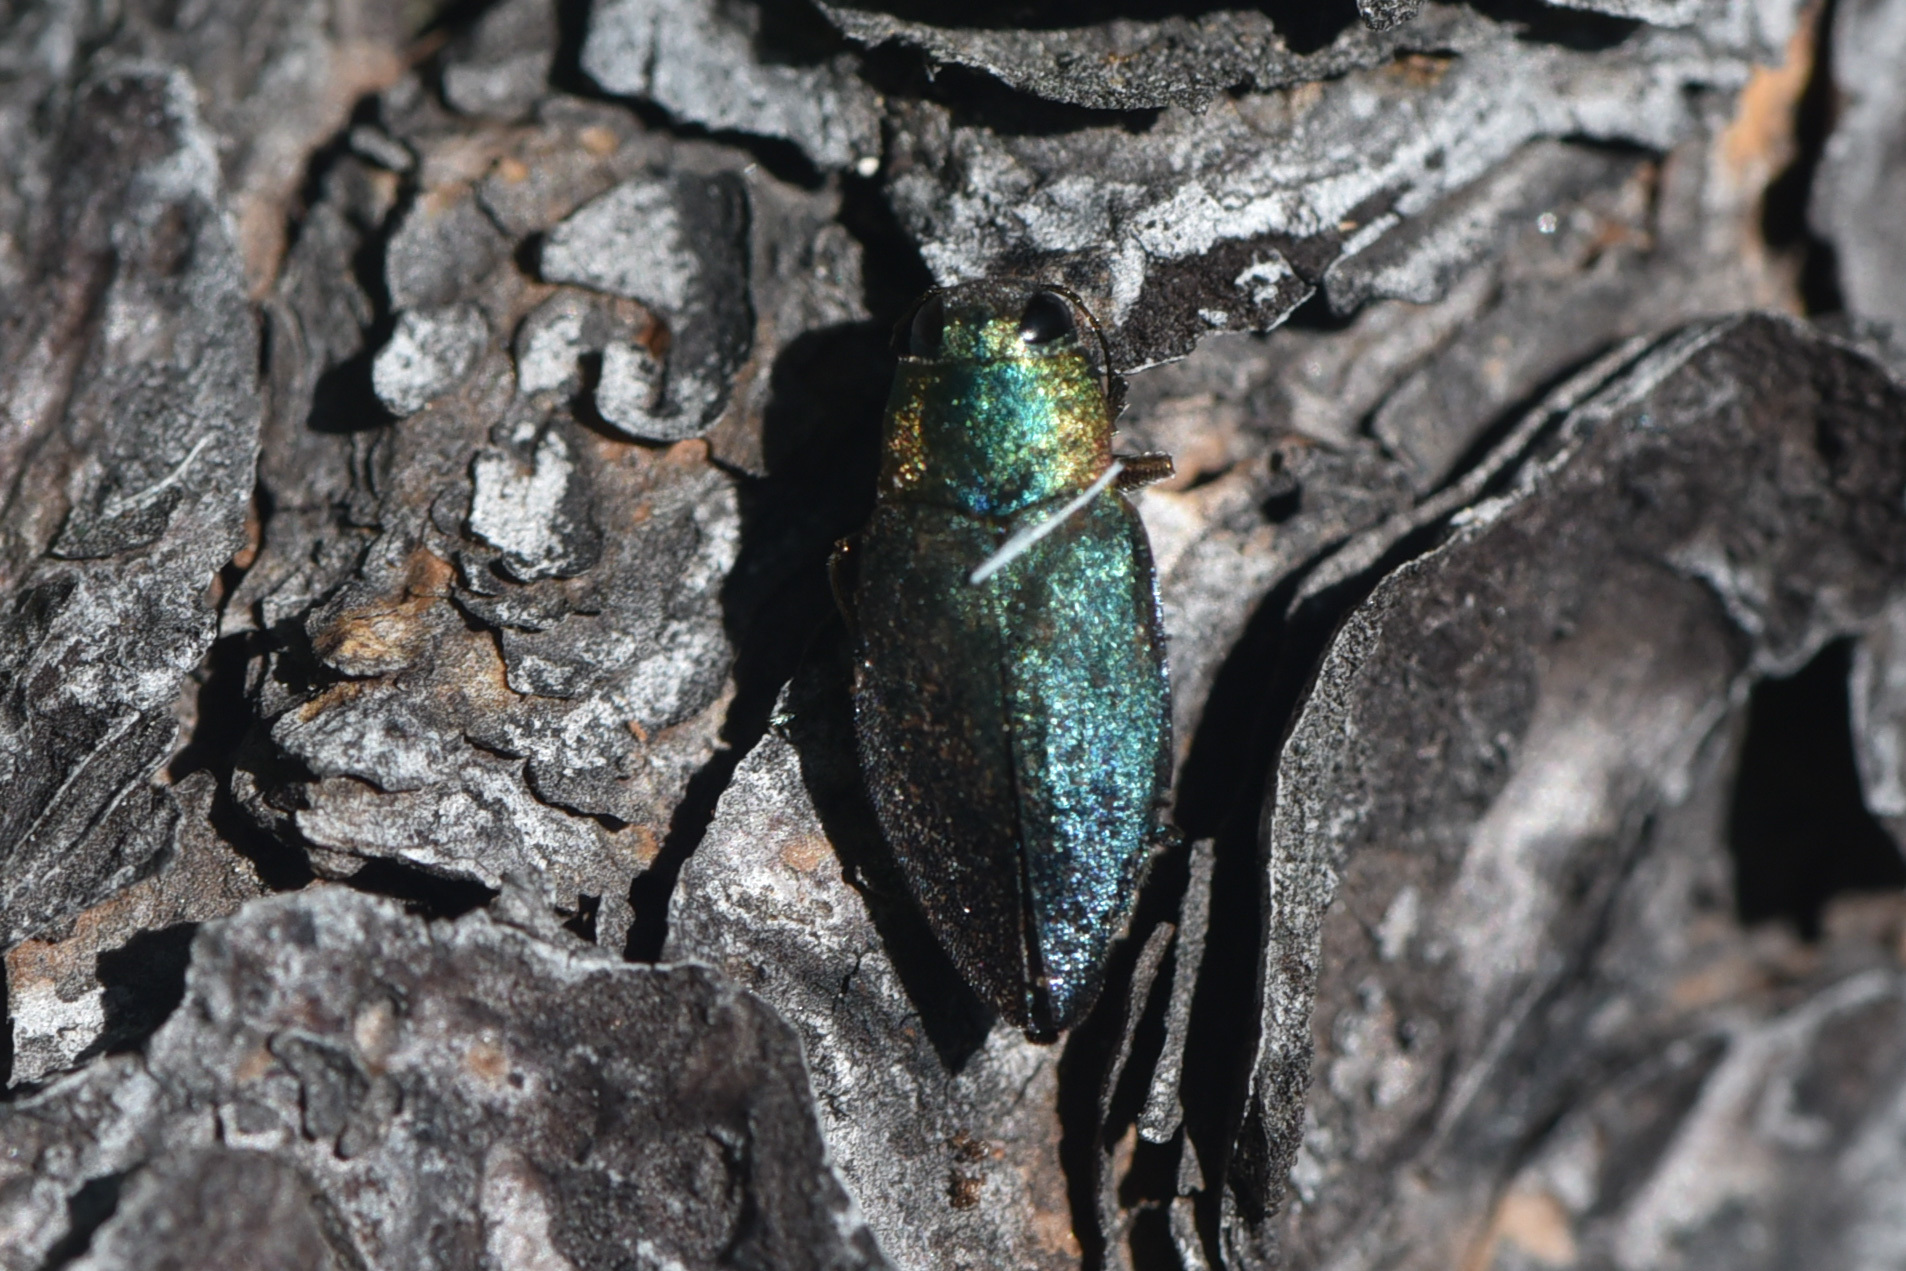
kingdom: Animalia
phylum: Arthropoda
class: Insecta
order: Coleoptera
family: Buprestidae
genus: Phaenops
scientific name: Phaenops gentilis
